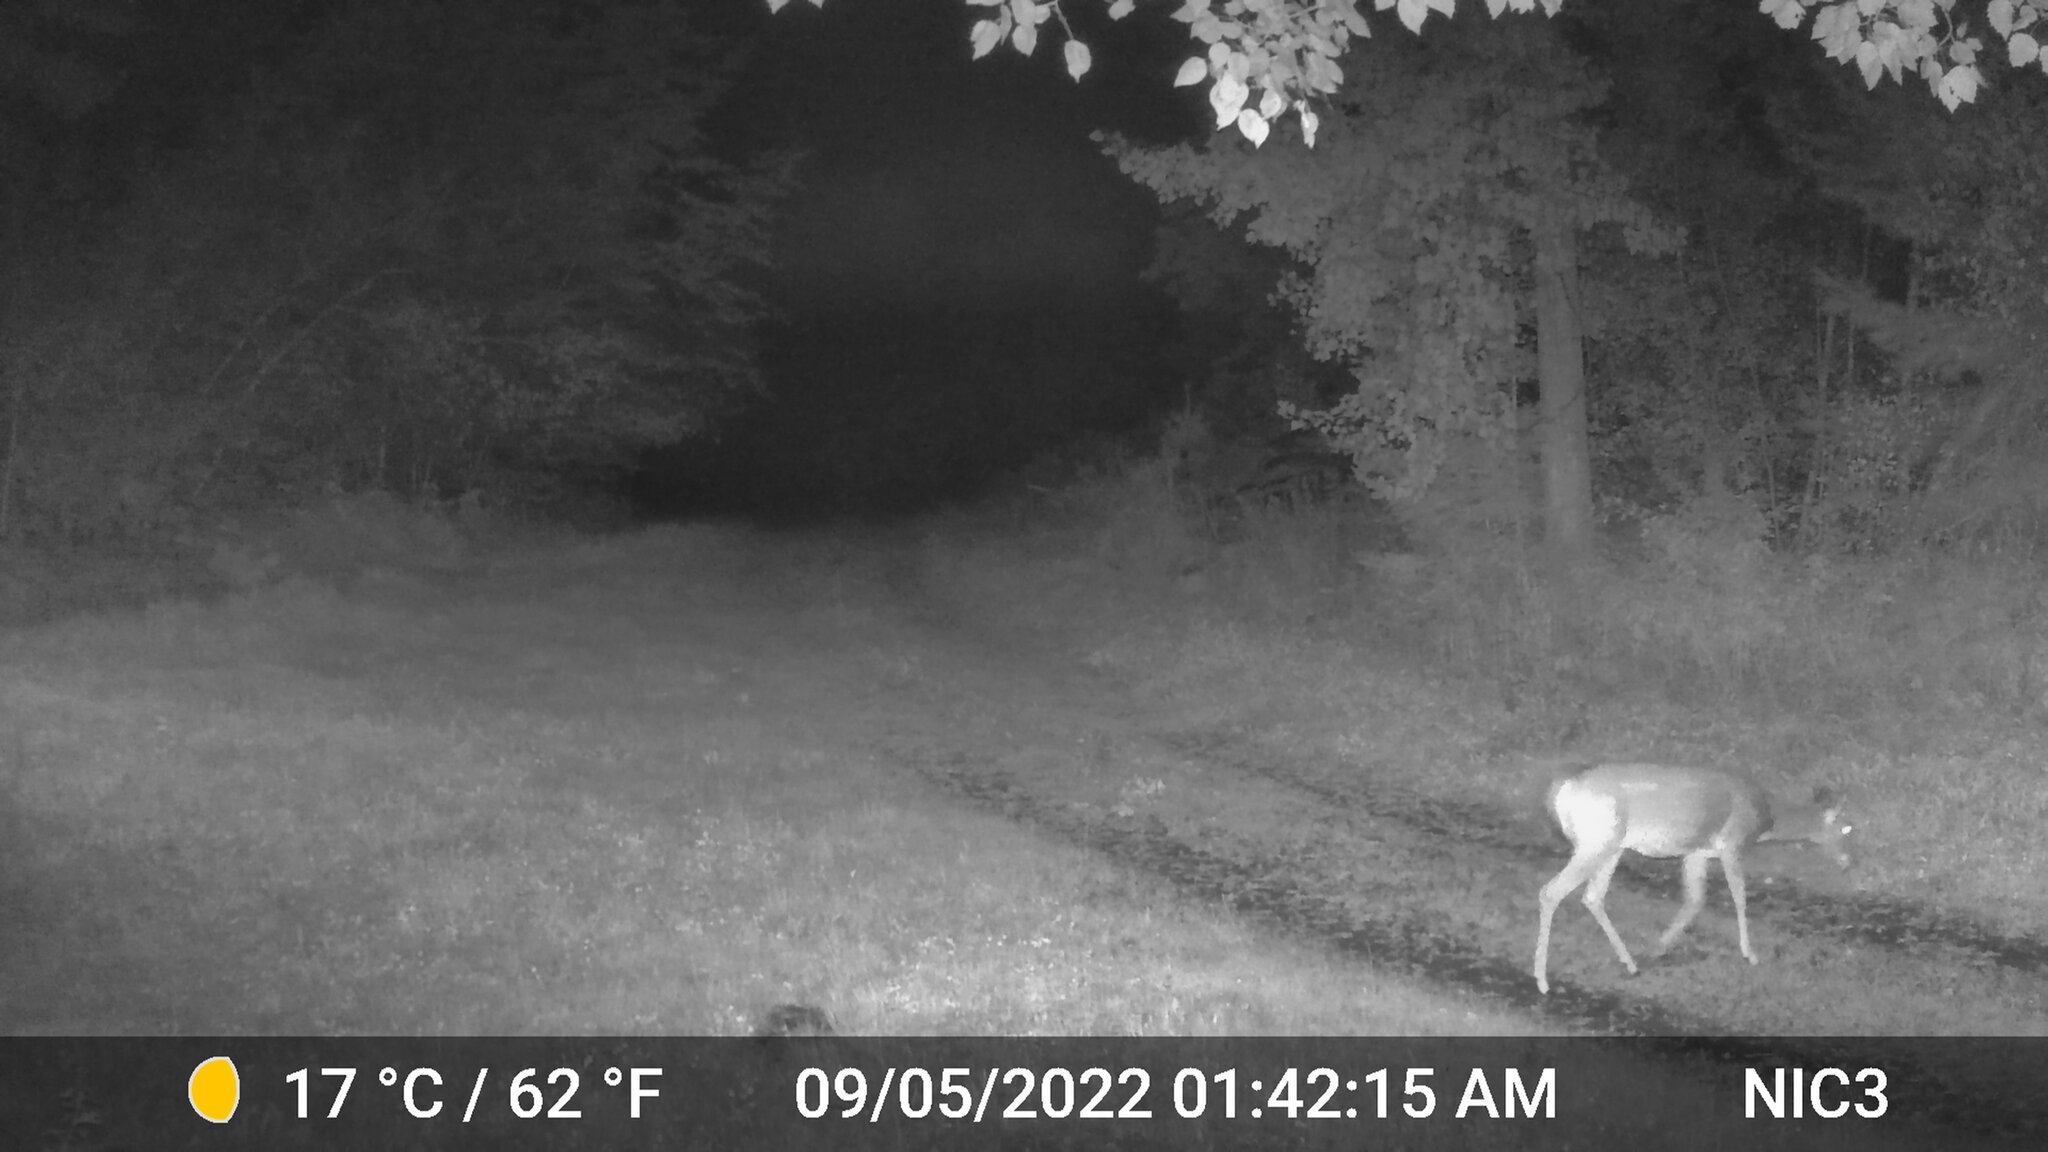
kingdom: Animalia
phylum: Chordata
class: Mammalia
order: Artiodactyla
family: Cervidae
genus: Odocoileus
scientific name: Odocoileus virginianus
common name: White-tailed deer
